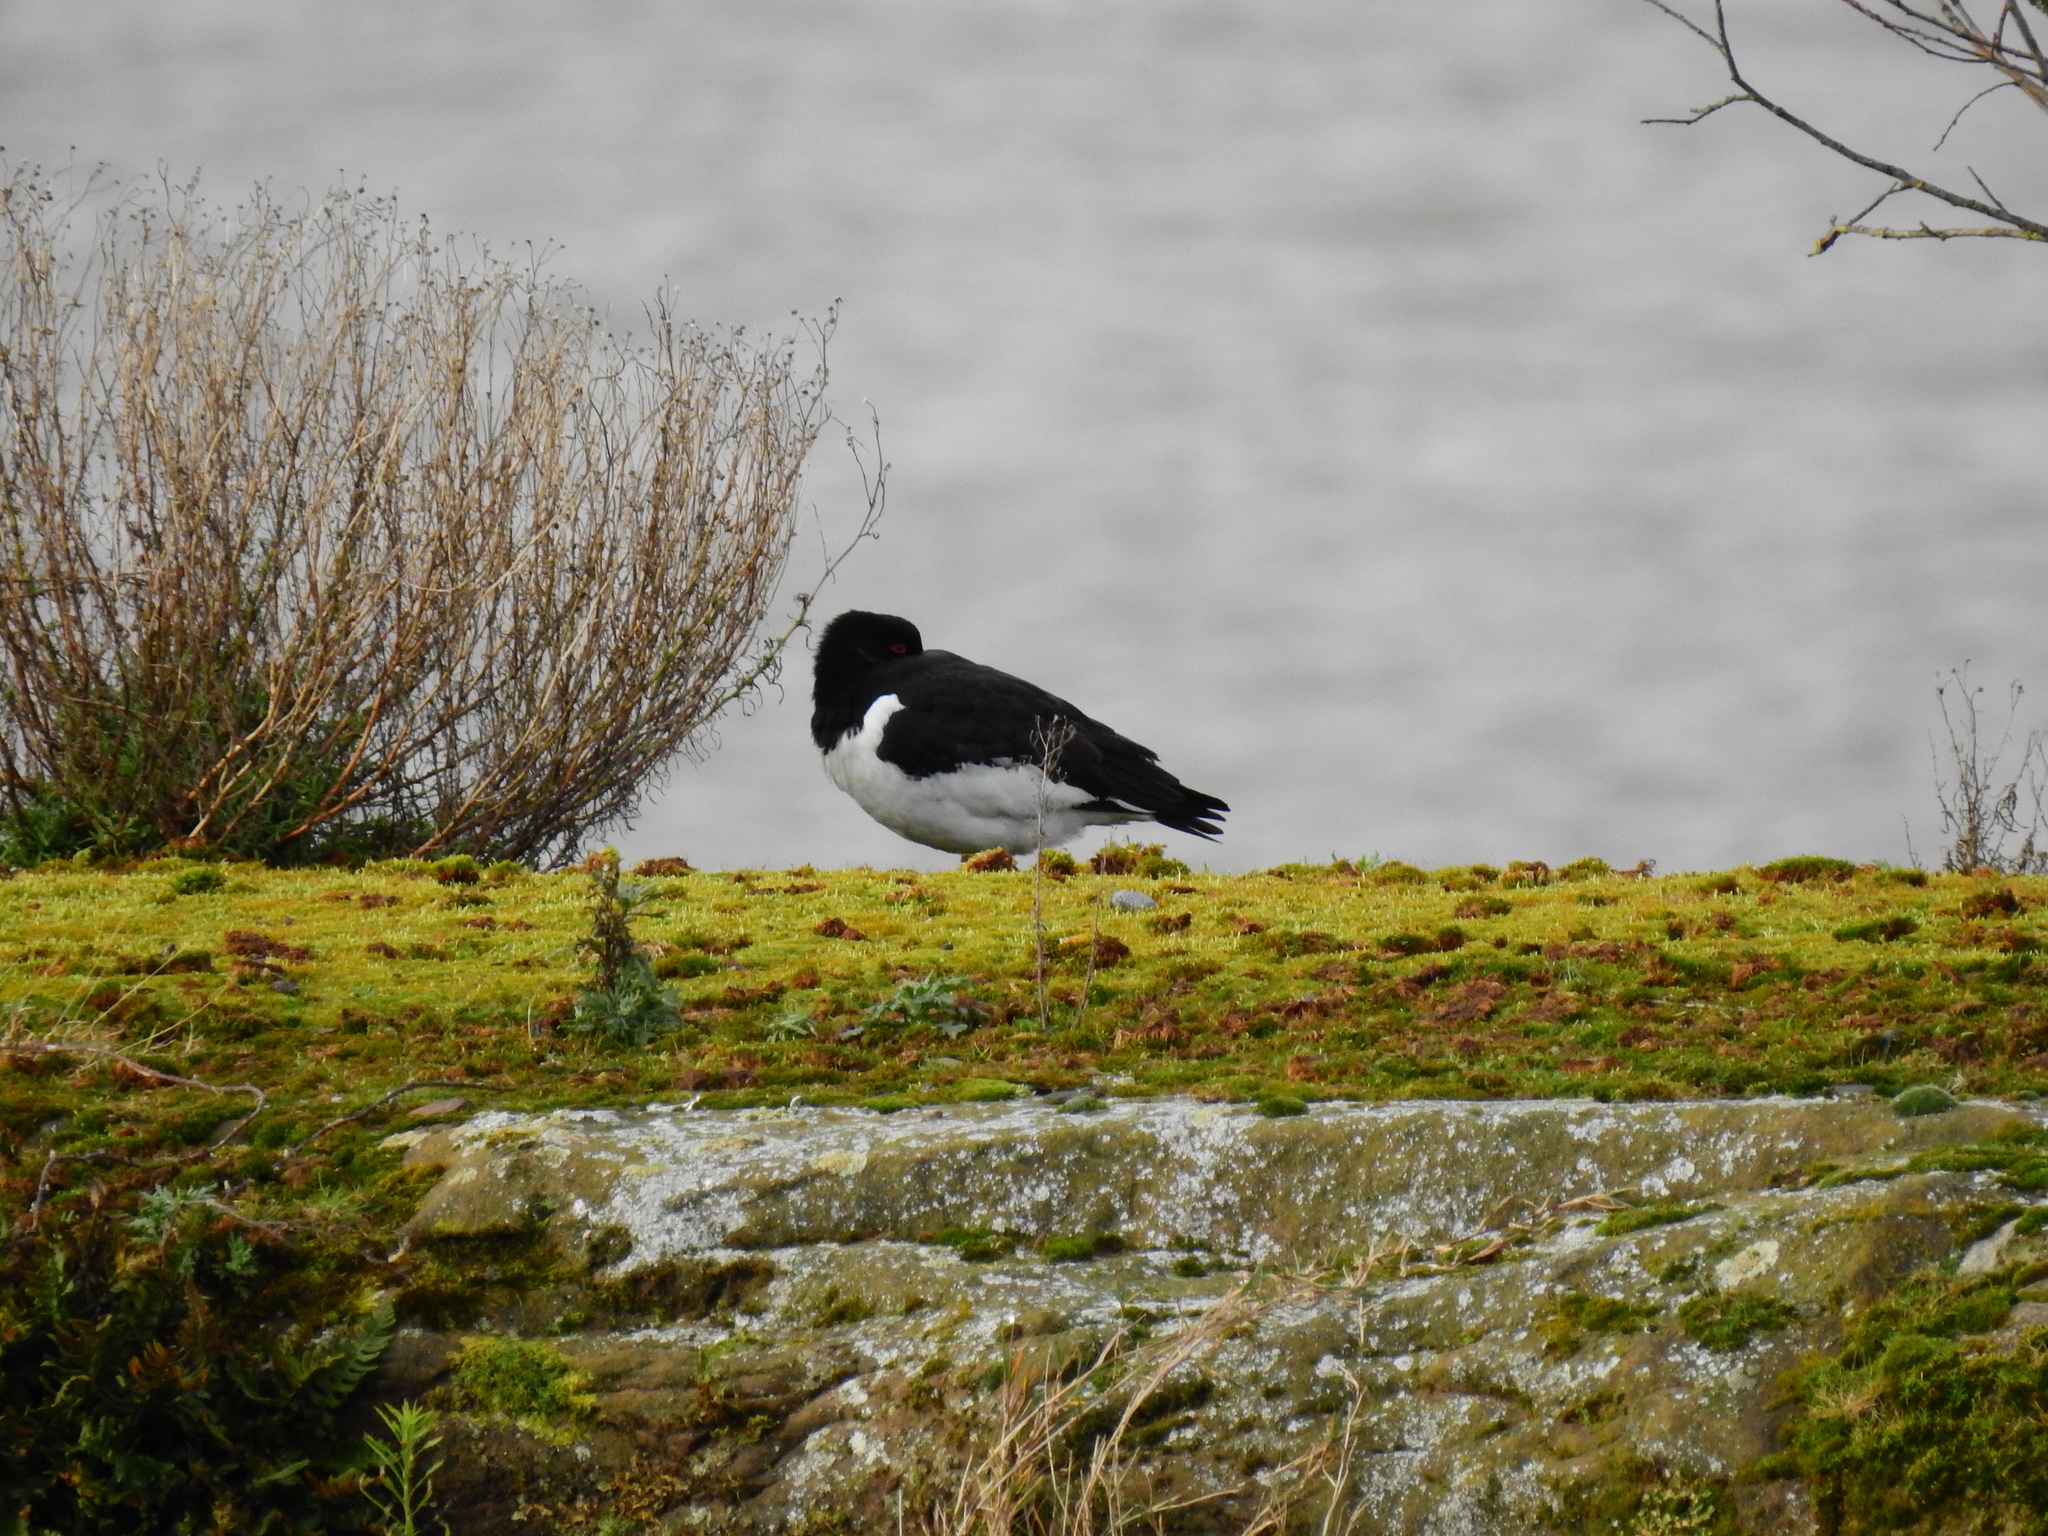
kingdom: Animalia
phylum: Chordata
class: Aves
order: Charadriiformes
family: Haematopodidae
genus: Haematopus
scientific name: Haematopus ostralegus
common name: Eurasian oystercatcher
